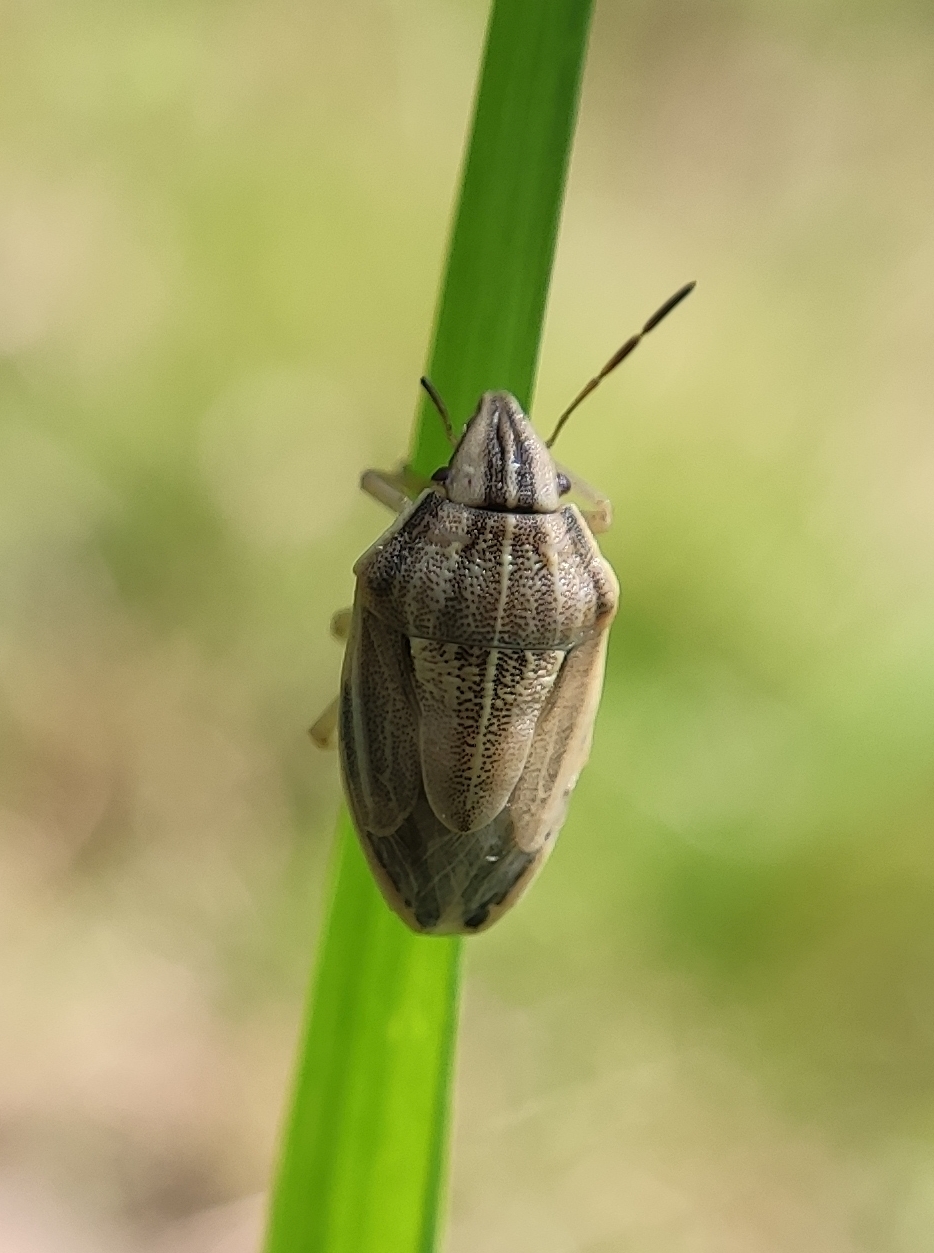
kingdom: Animalia
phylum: Arthropoda
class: Insecta
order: Hemiptera
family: Pentatomidae
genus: Aelia
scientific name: Aelia acuminata
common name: Bishop's mitre
